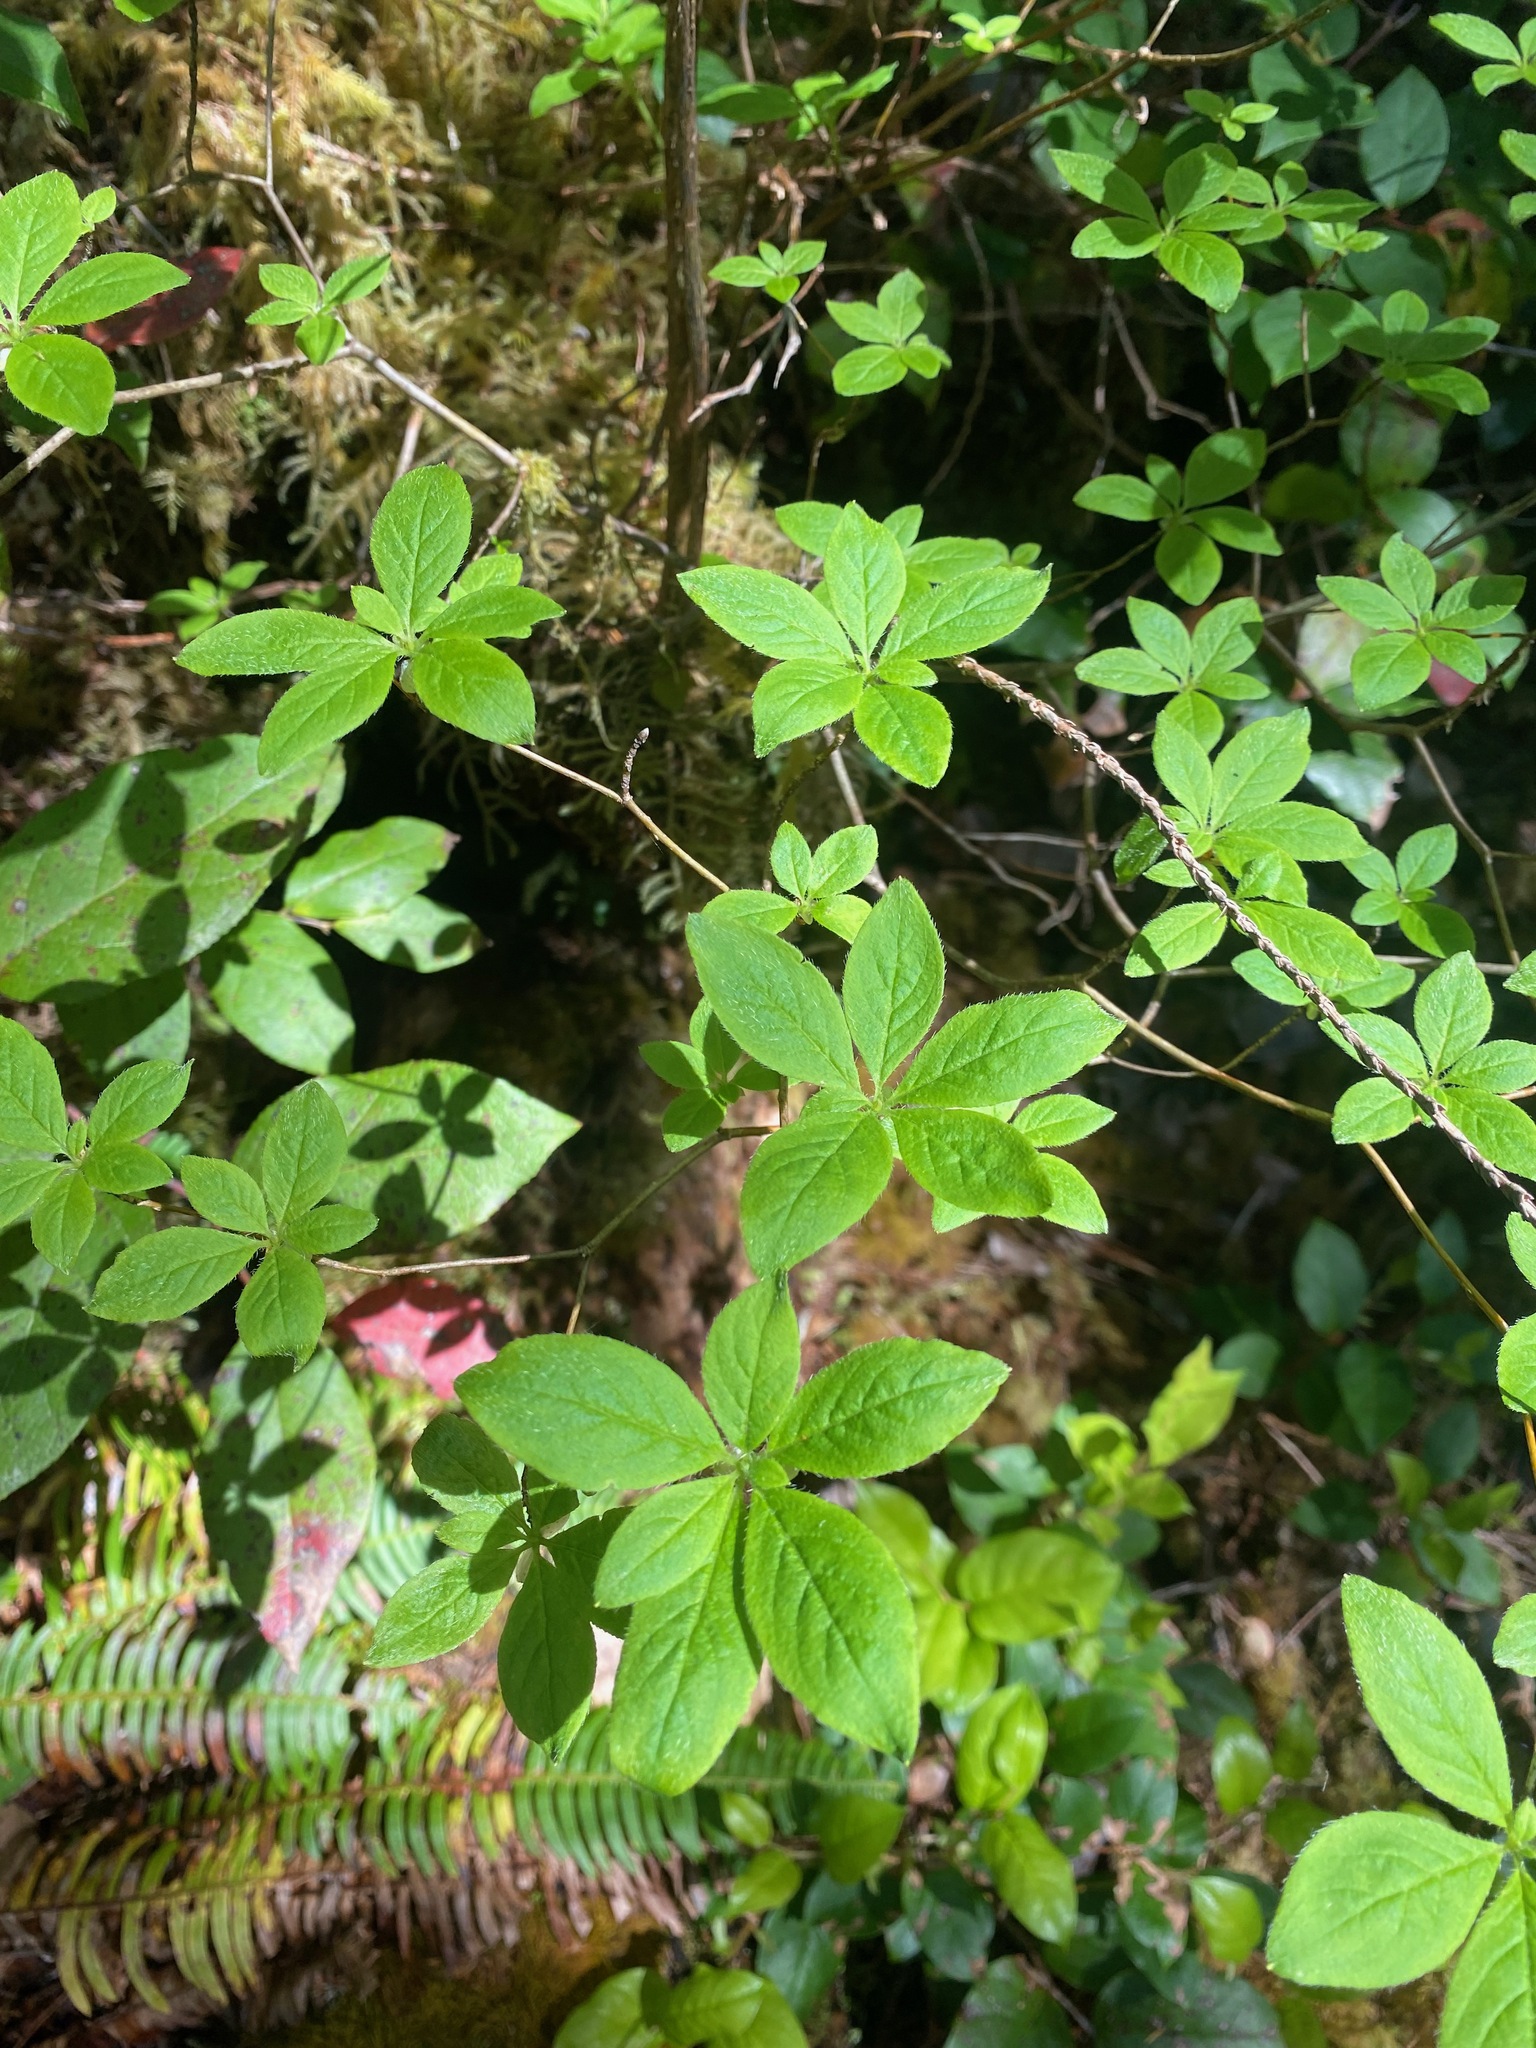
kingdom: Plantae
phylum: Tracheophyta
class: Magnoliopsida
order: Ericales
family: Ericaceae
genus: Rhododendron
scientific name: Rhododendron menziesii
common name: Pacific menziesia
